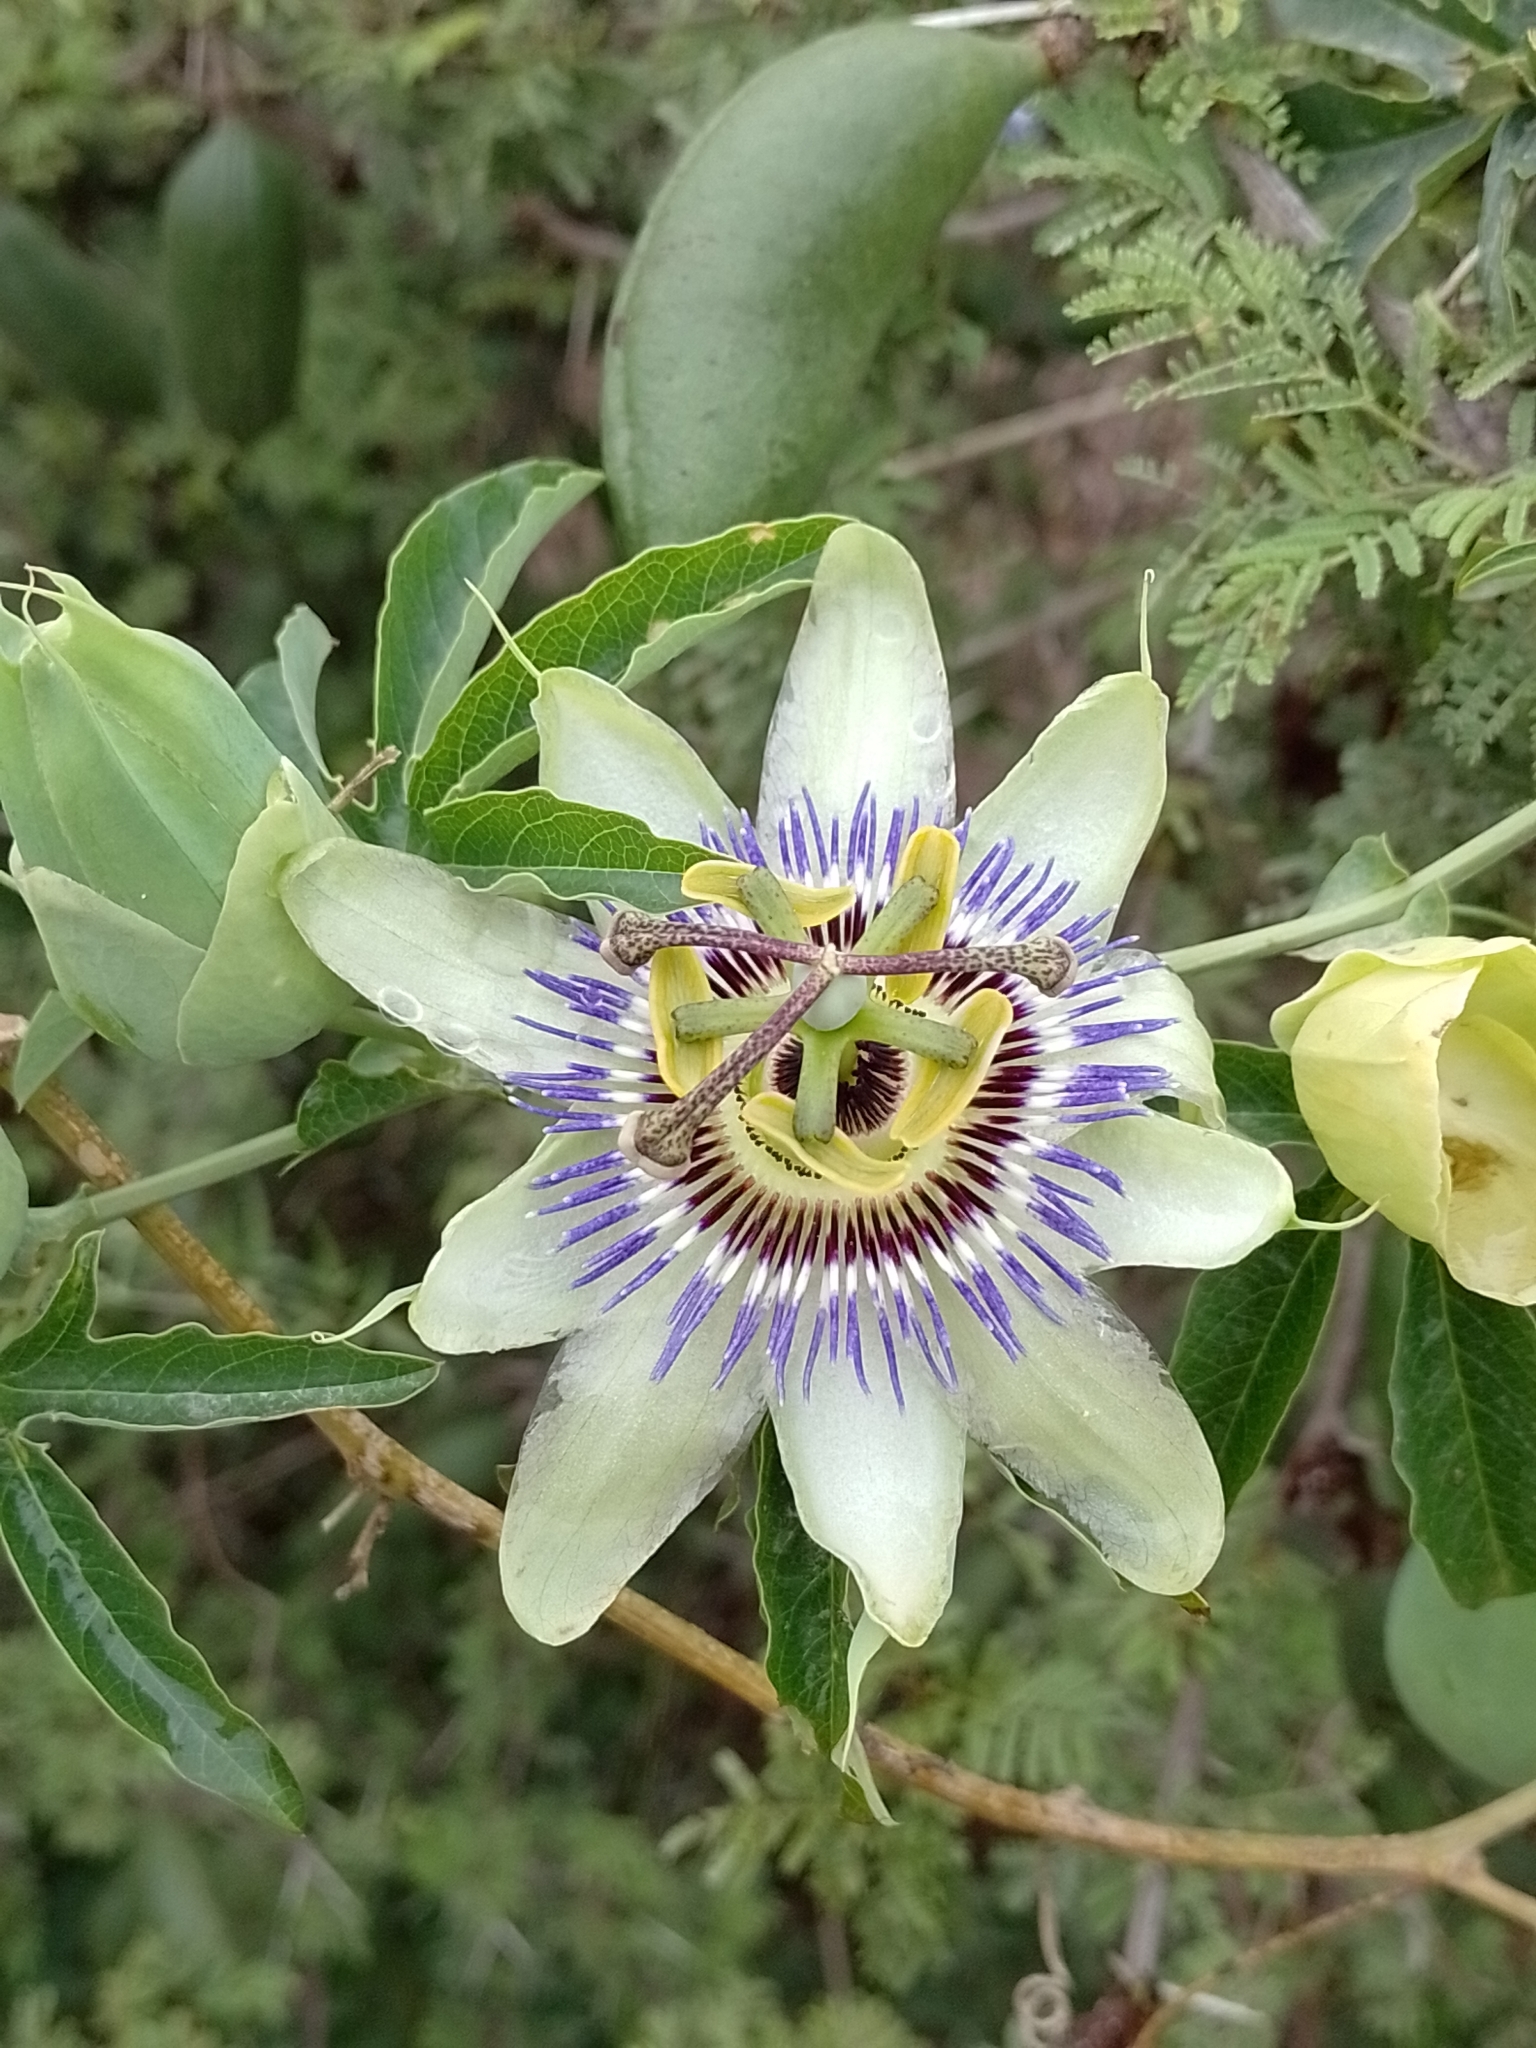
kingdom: Plantae
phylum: Tracheophyta
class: Magnoliopsida
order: Malpighiales
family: Passifloraceae
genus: Passiflora
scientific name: Passiflora caerulea
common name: Blue passionflower
